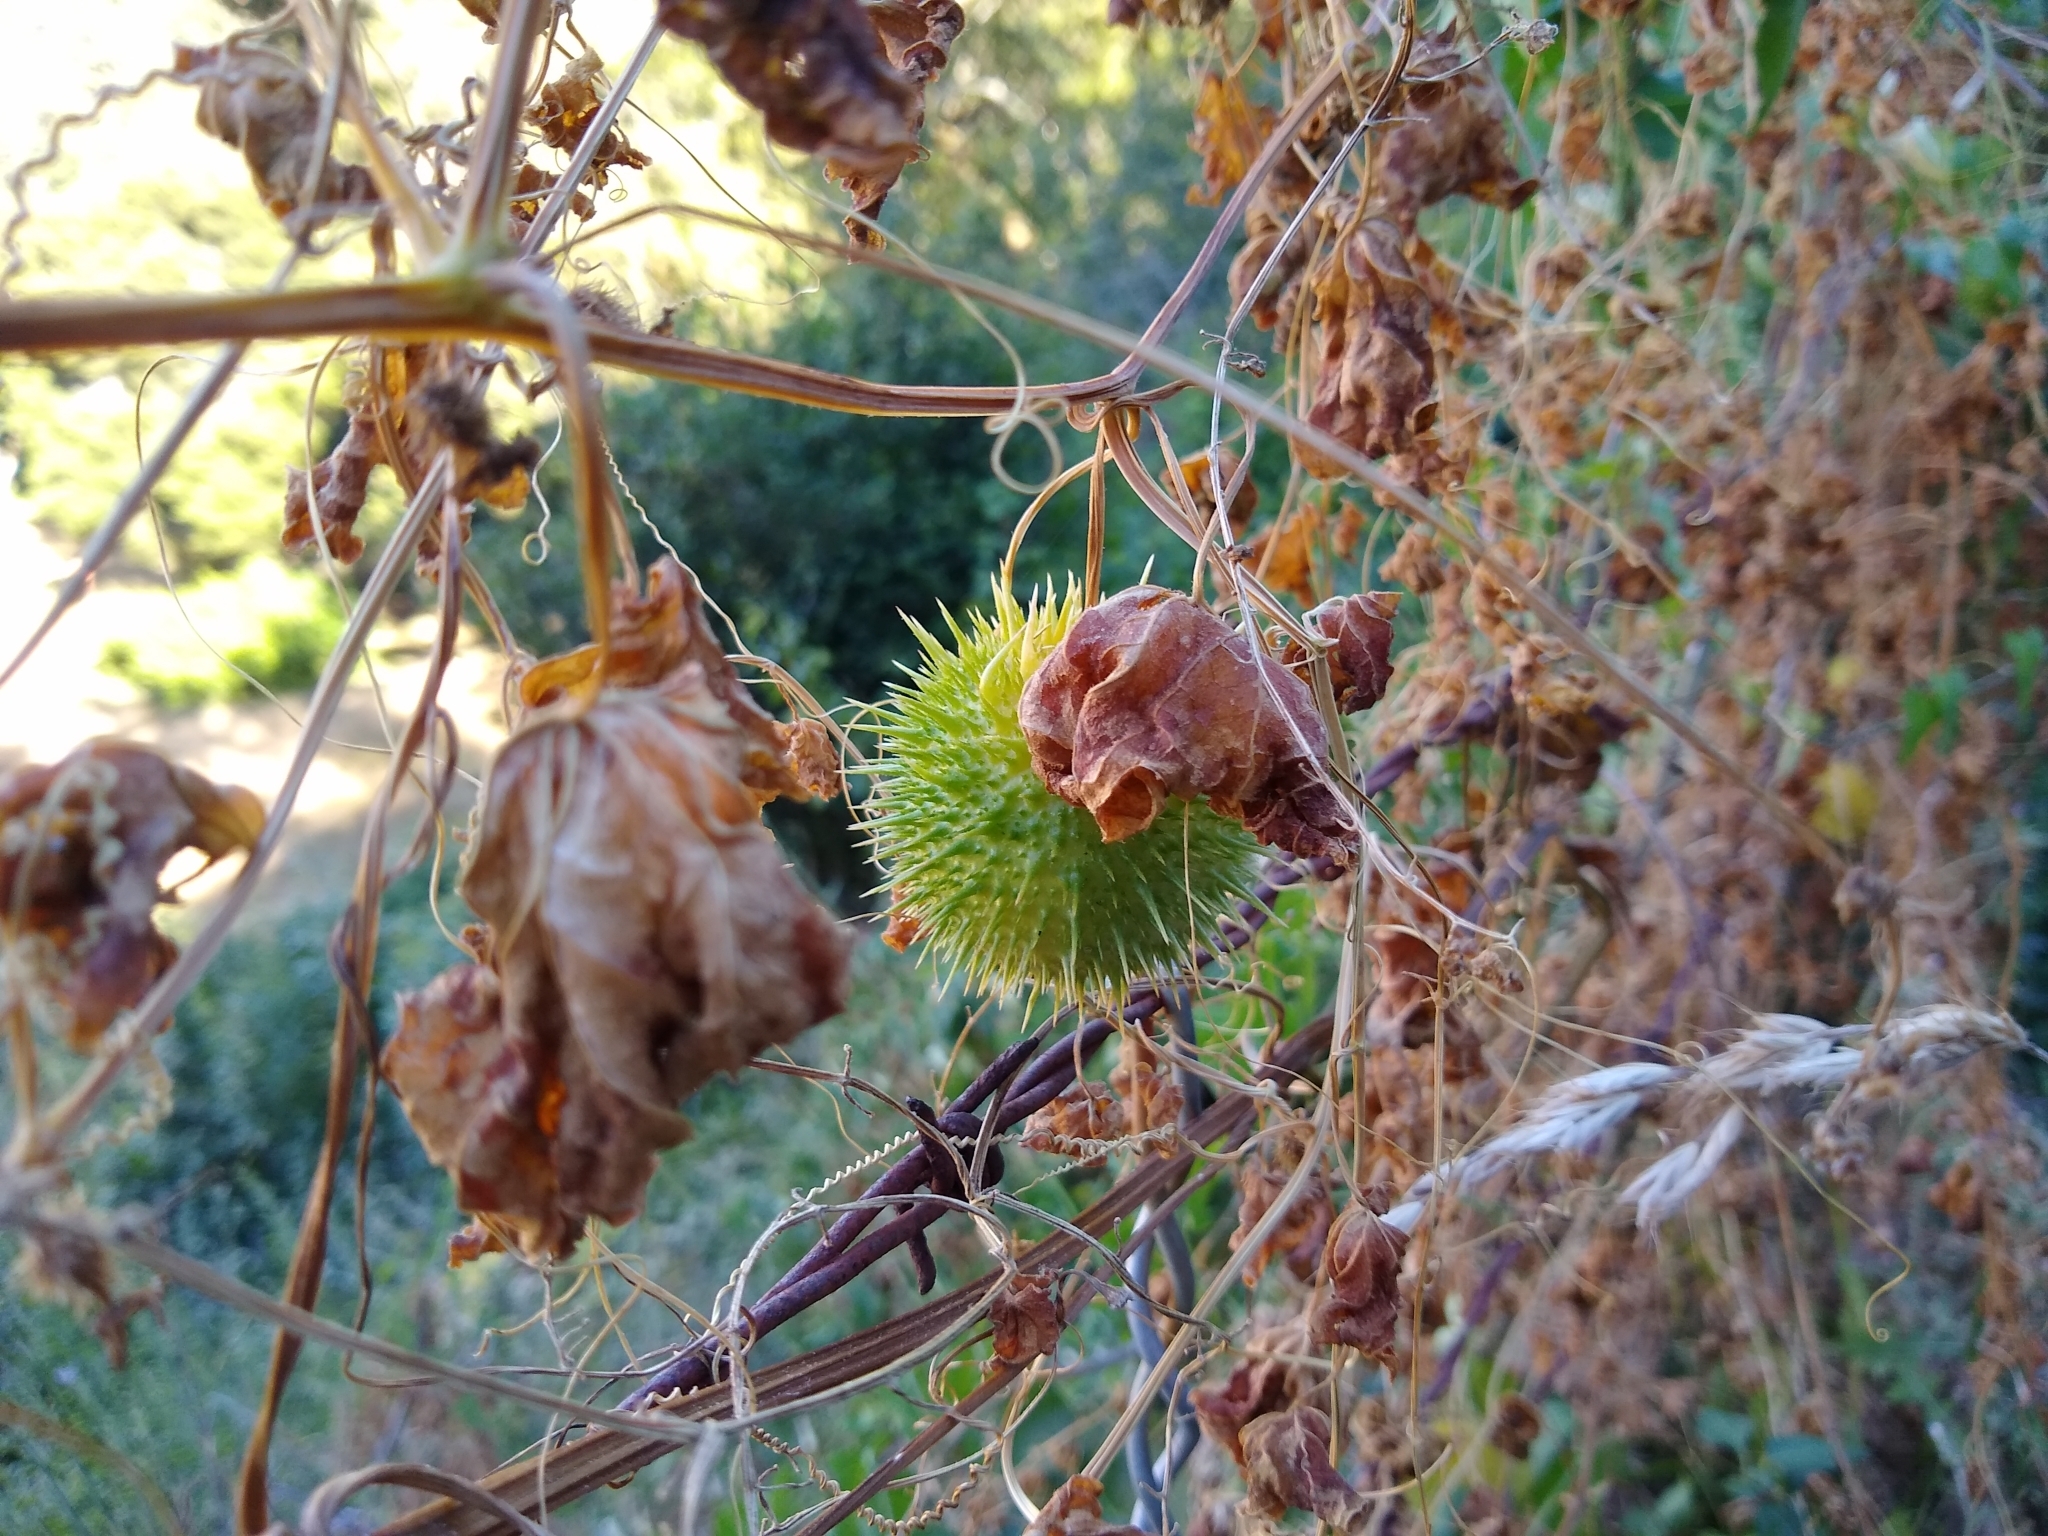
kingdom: Plantae
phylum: Tracheophyta
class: Magnoliopsida
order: Cucurbitales
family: Cucurbitaceae
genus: Marah
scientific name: Marah fabacea
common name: California manroot
